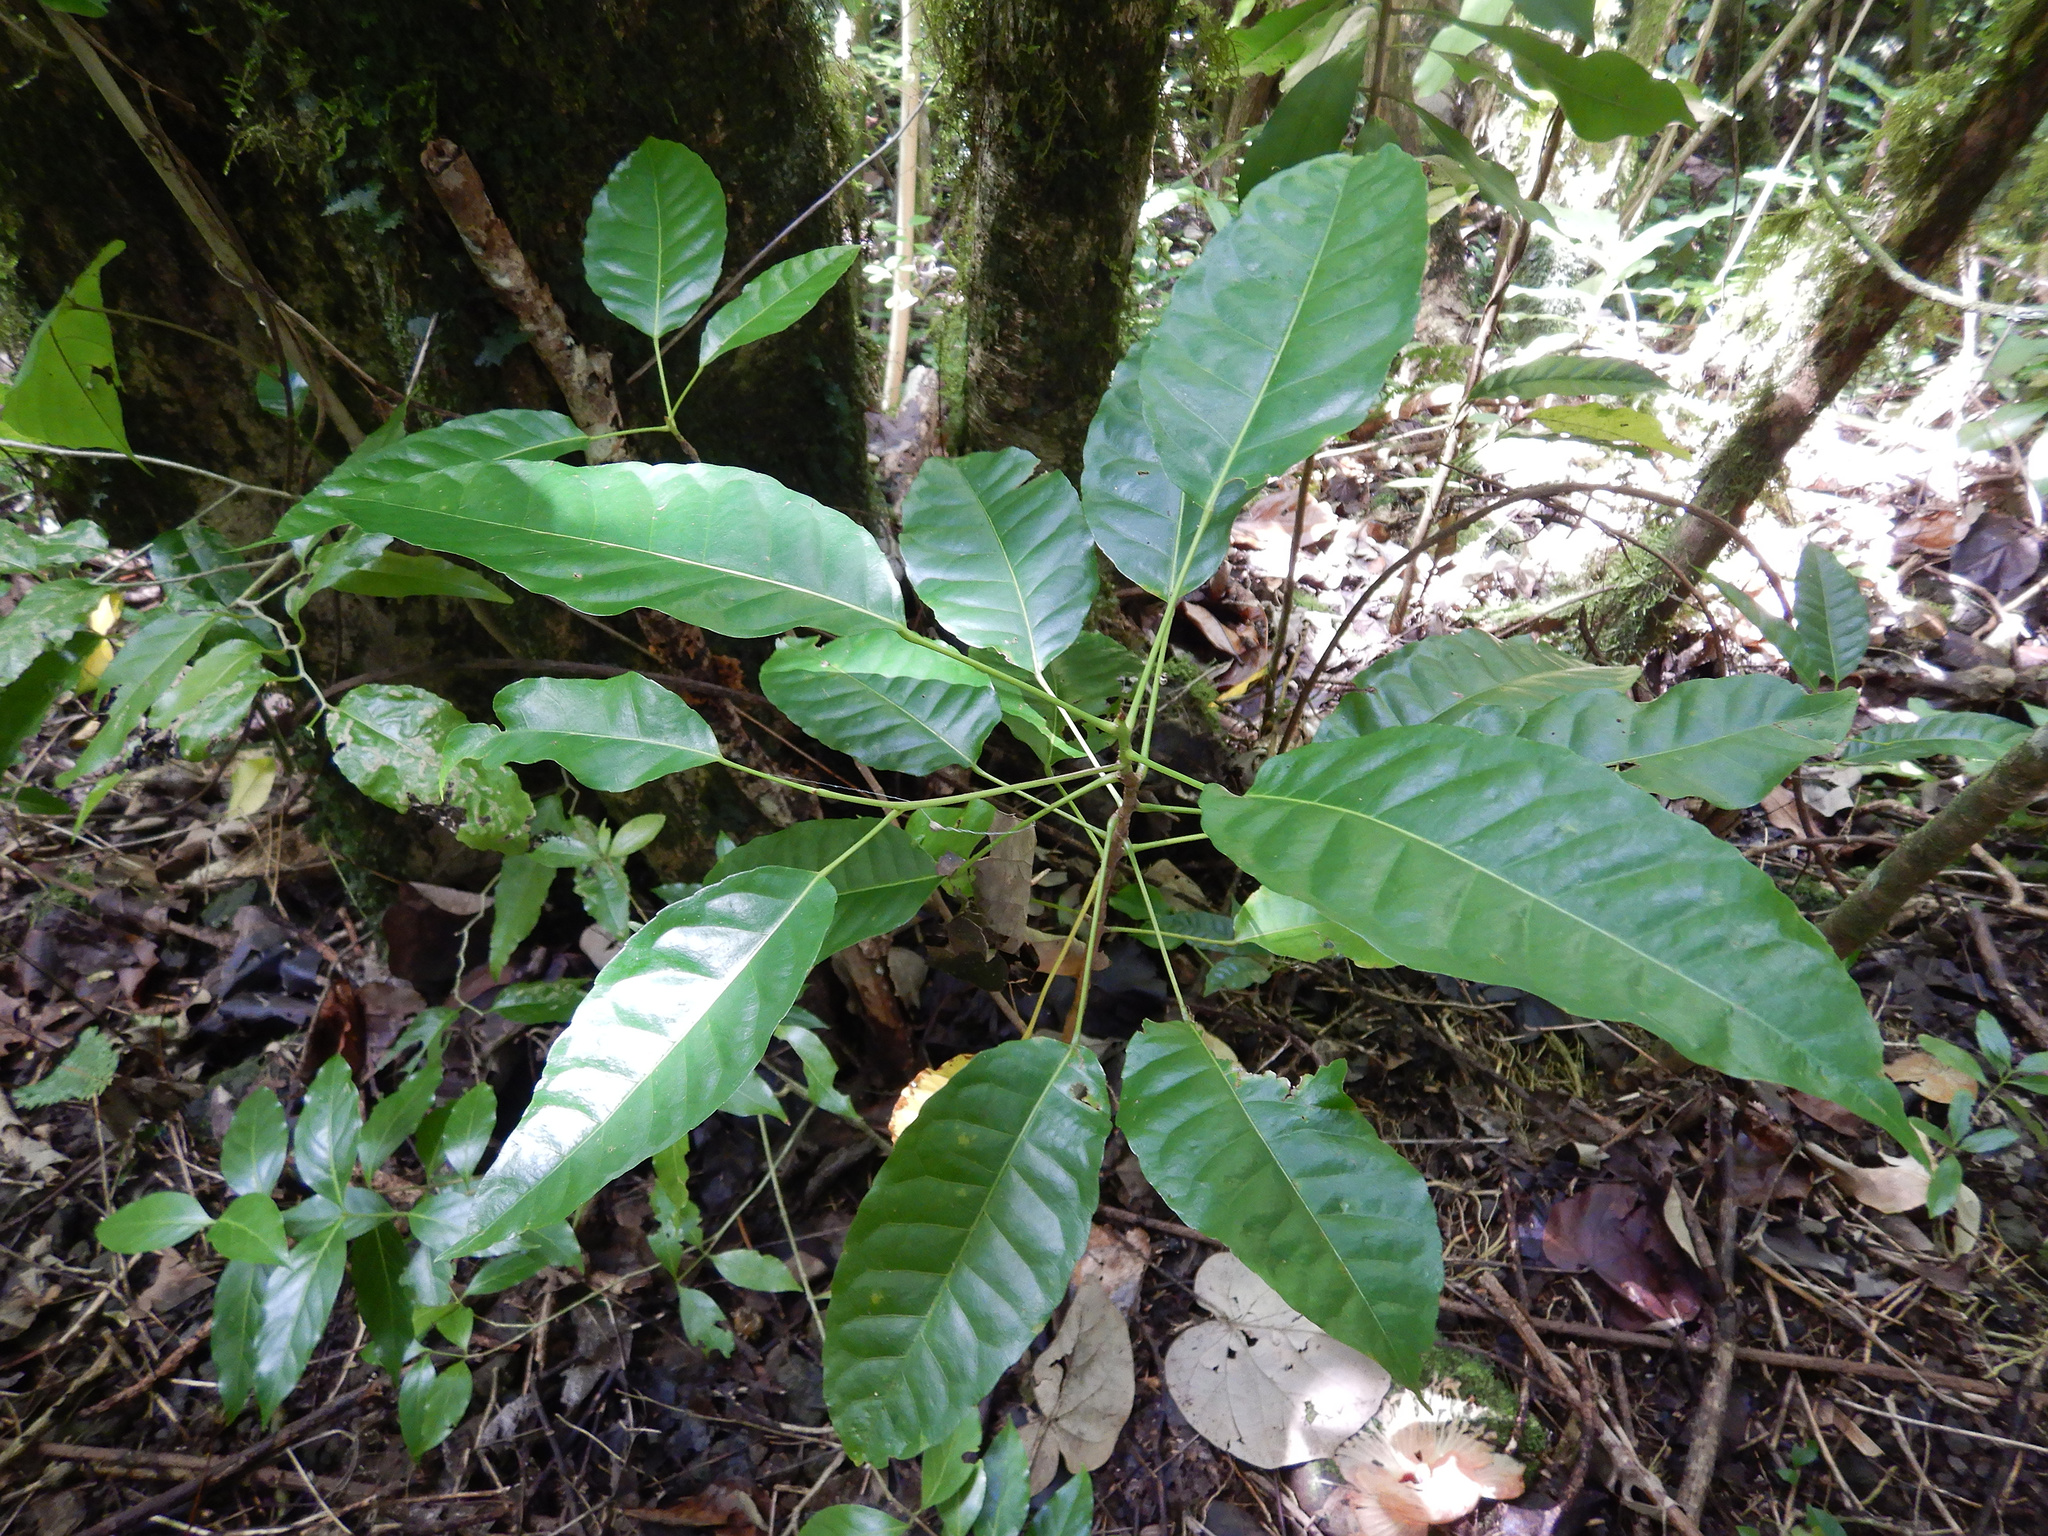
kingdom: Plantae
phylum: Tracheophyta
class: Magnoliopsida
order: Oxalidales
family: Elaeocarpaceae
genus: Elaeocarpus
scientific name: Elaeocarpus floridanus
